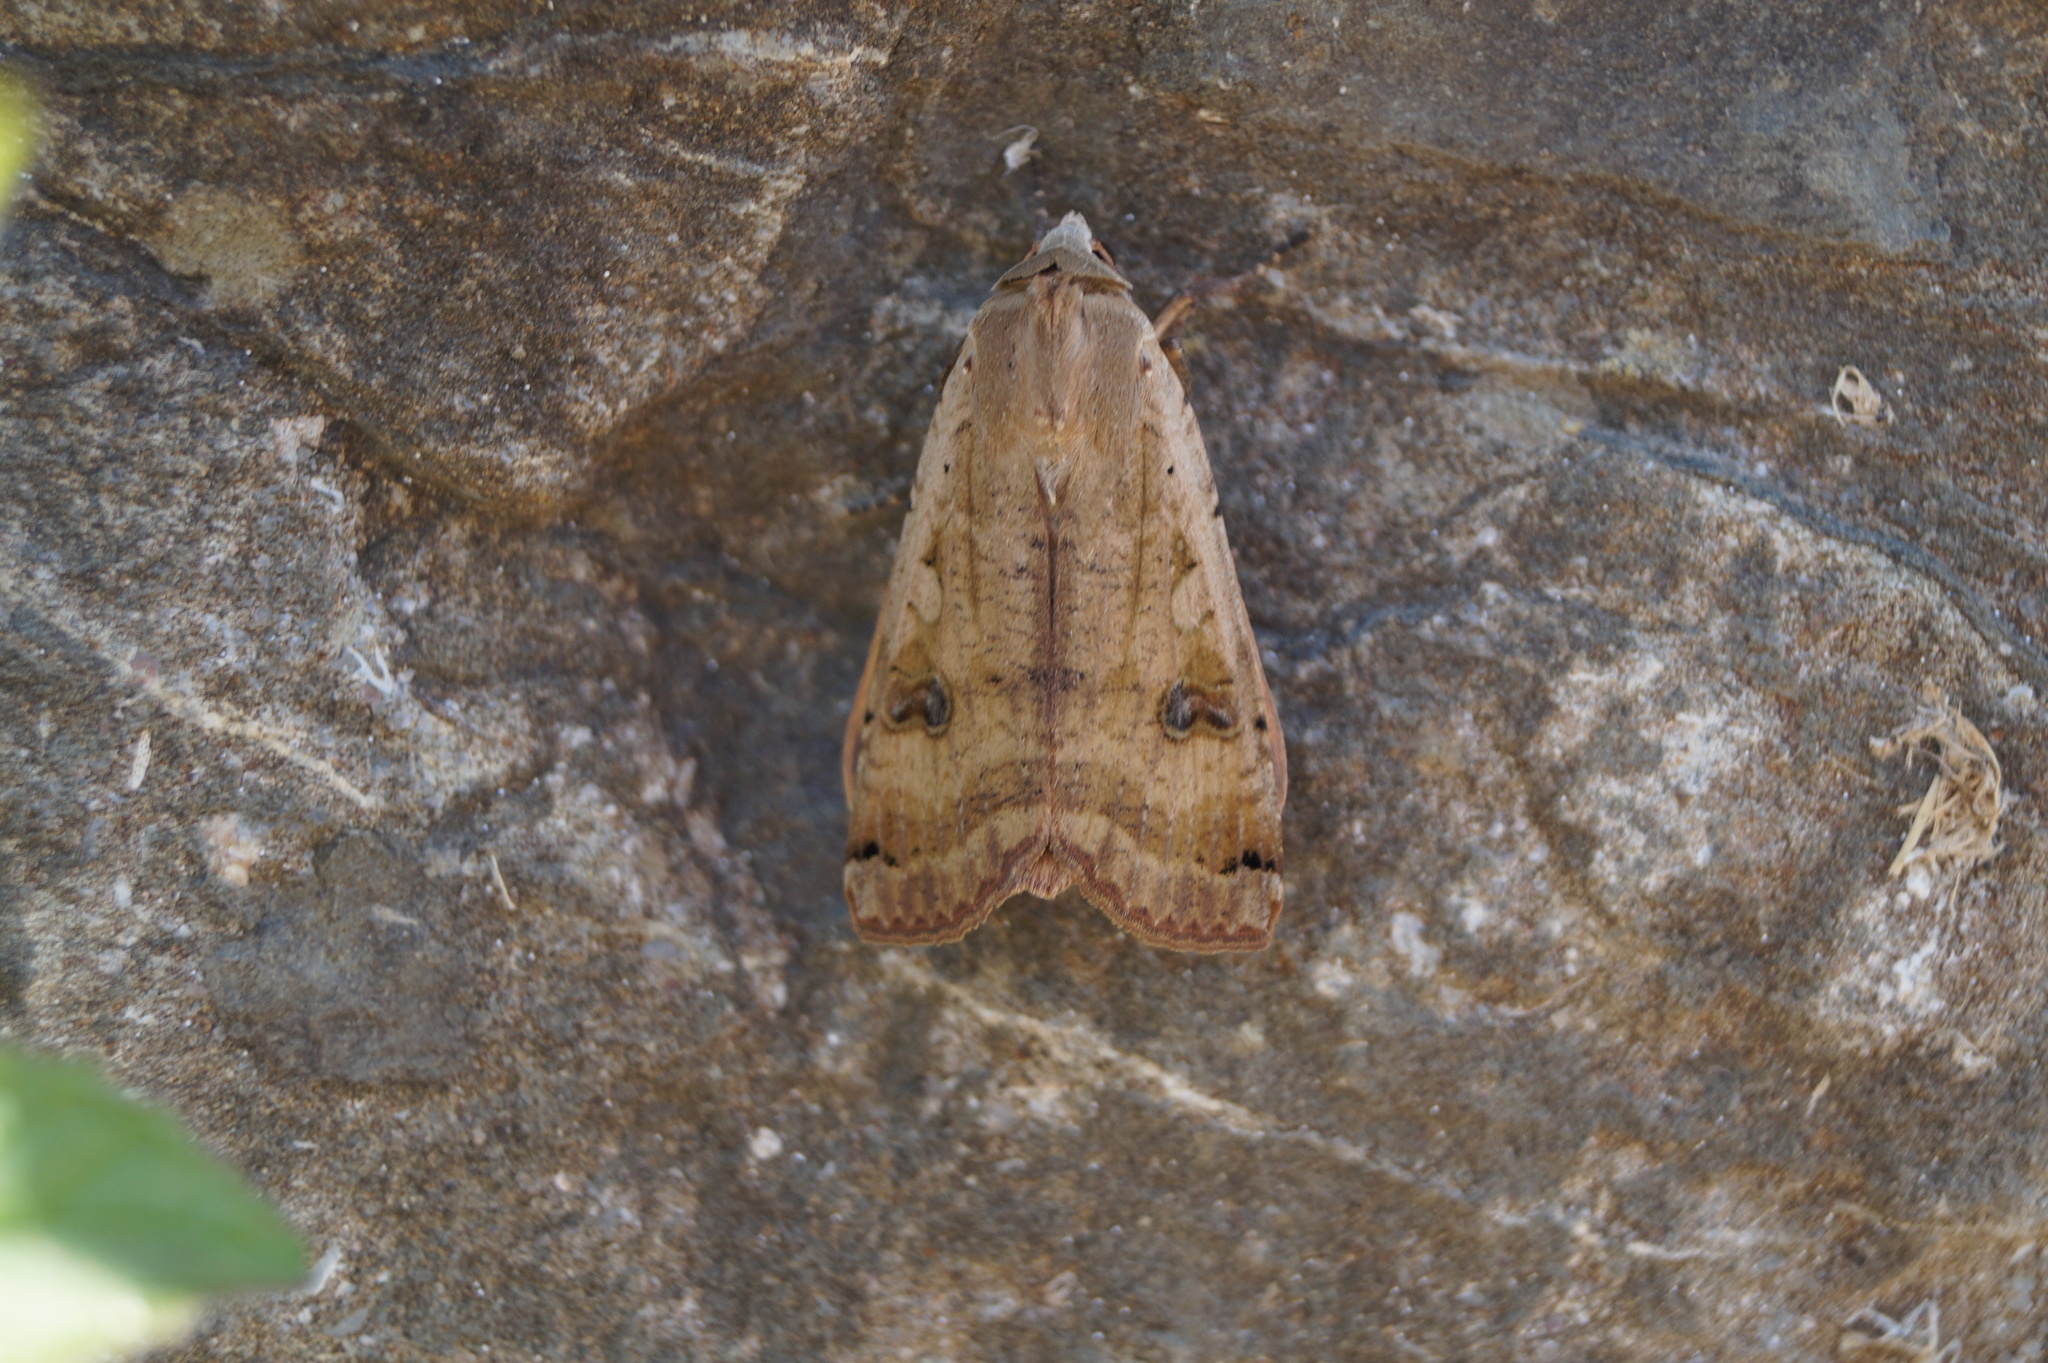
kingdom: Animalia
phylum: Arthropoda
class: Insecta
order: Lepidoptera
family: Noctuidae
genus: Noctua
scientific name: Noctua pronuba
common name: Large yellow underwing
